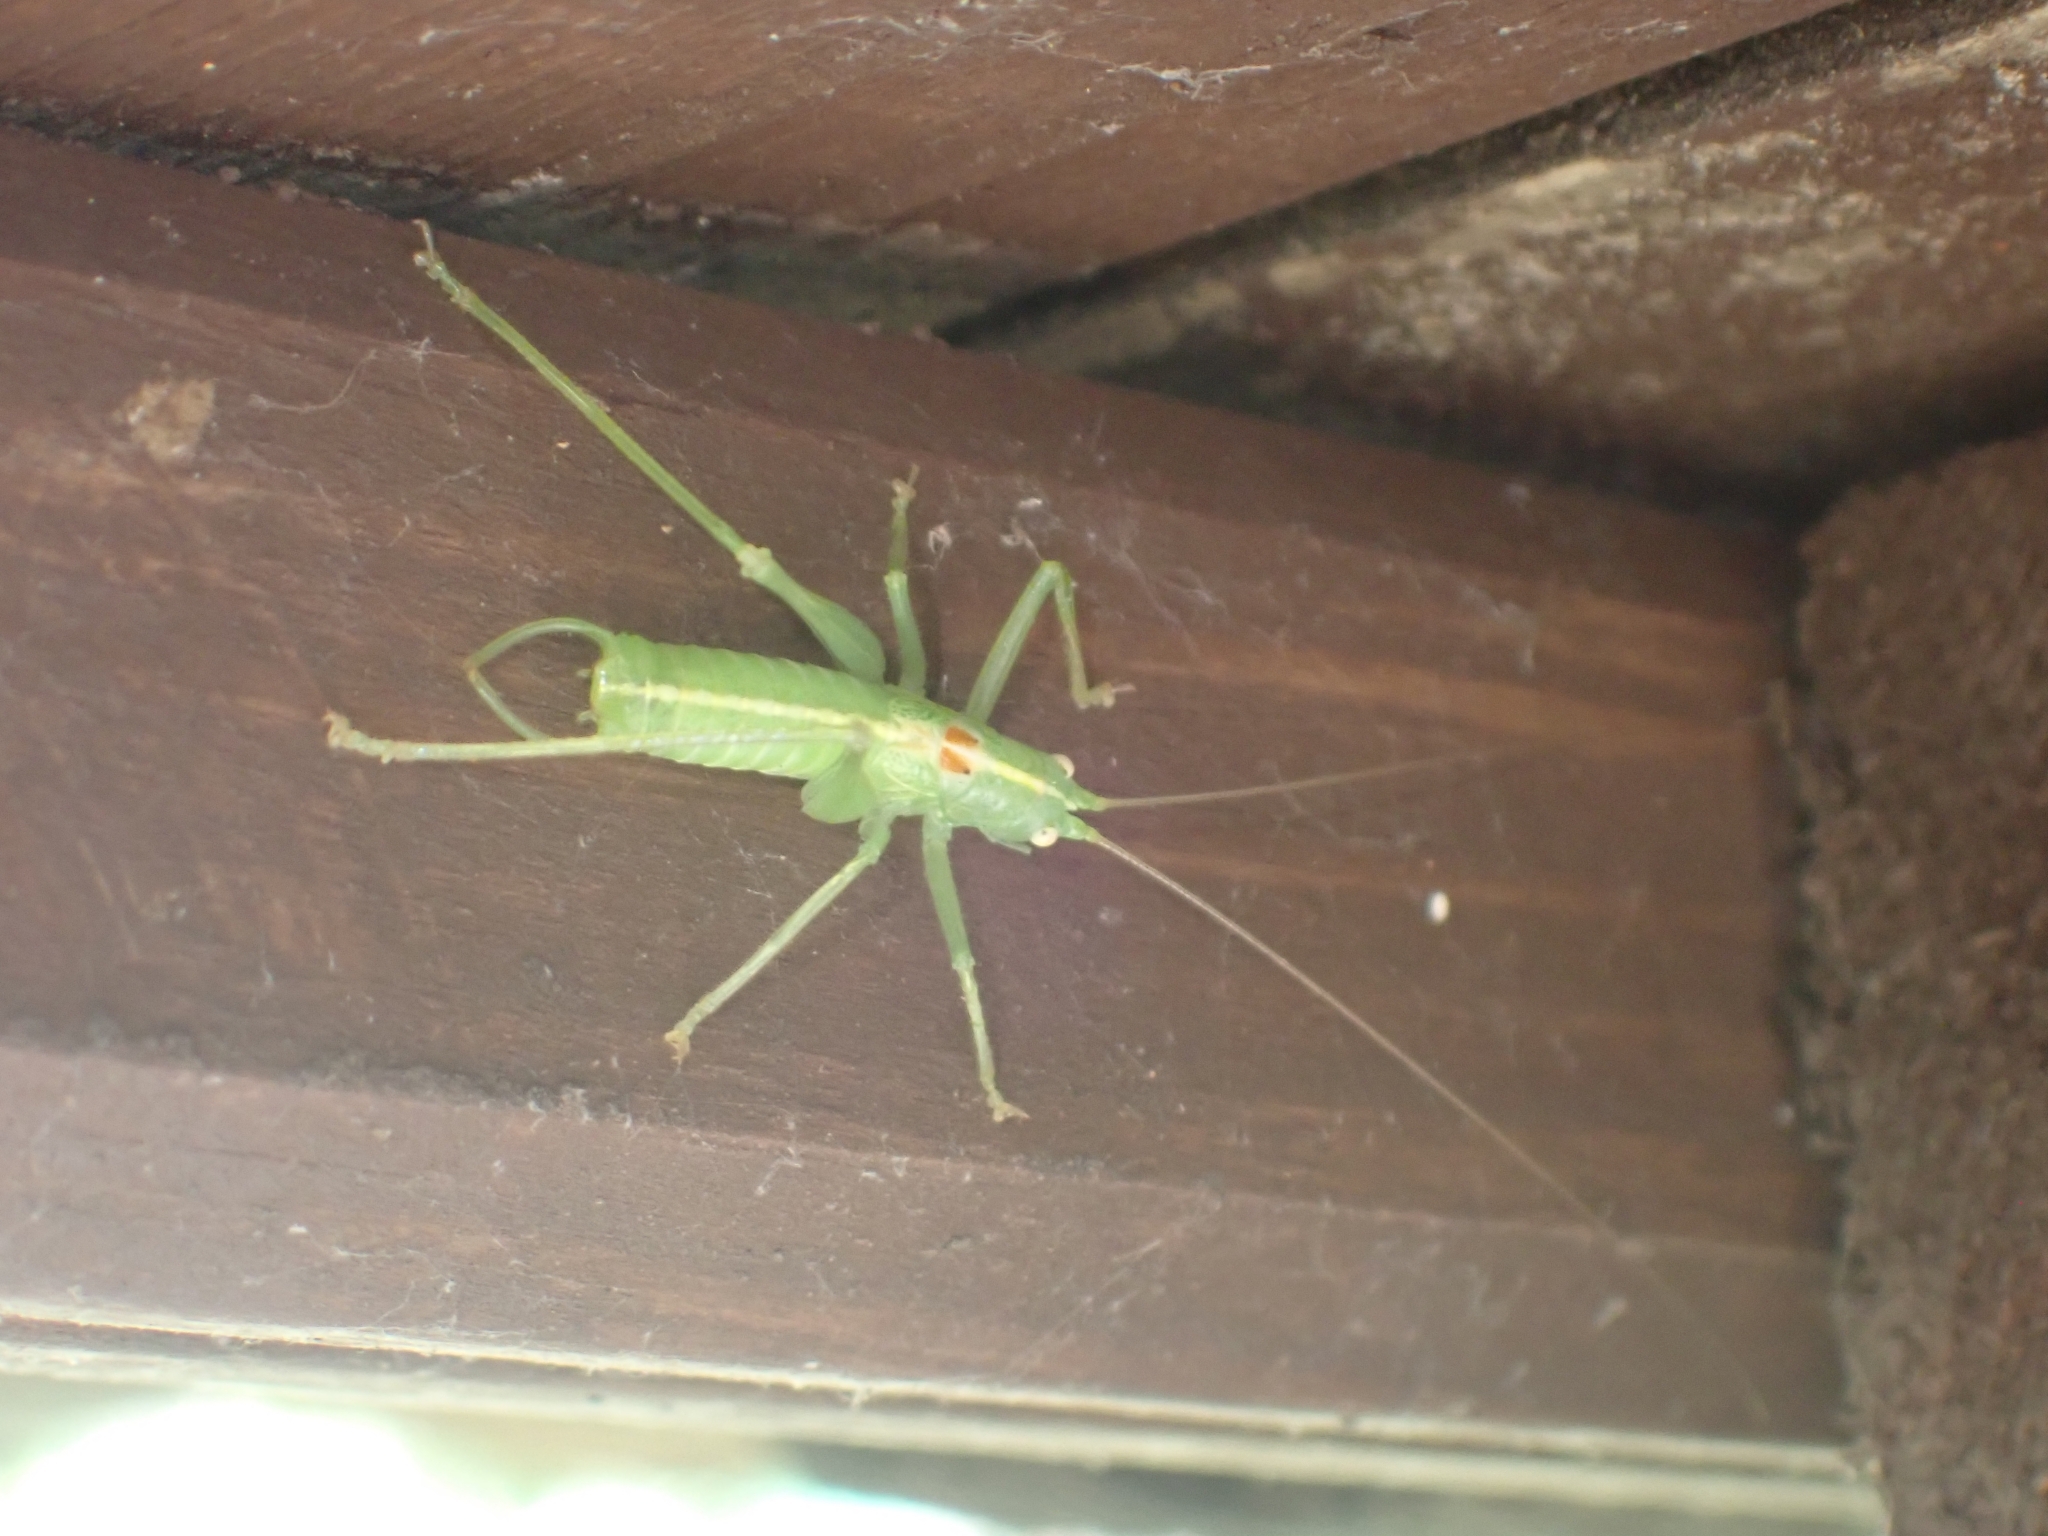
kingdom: Animalia
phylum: Arthropoda
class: Insecta
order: Orthoptera
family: Tettigoniidae
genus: Meconema
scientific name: Meconema meridionale
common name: Southern oak bush-cricket
